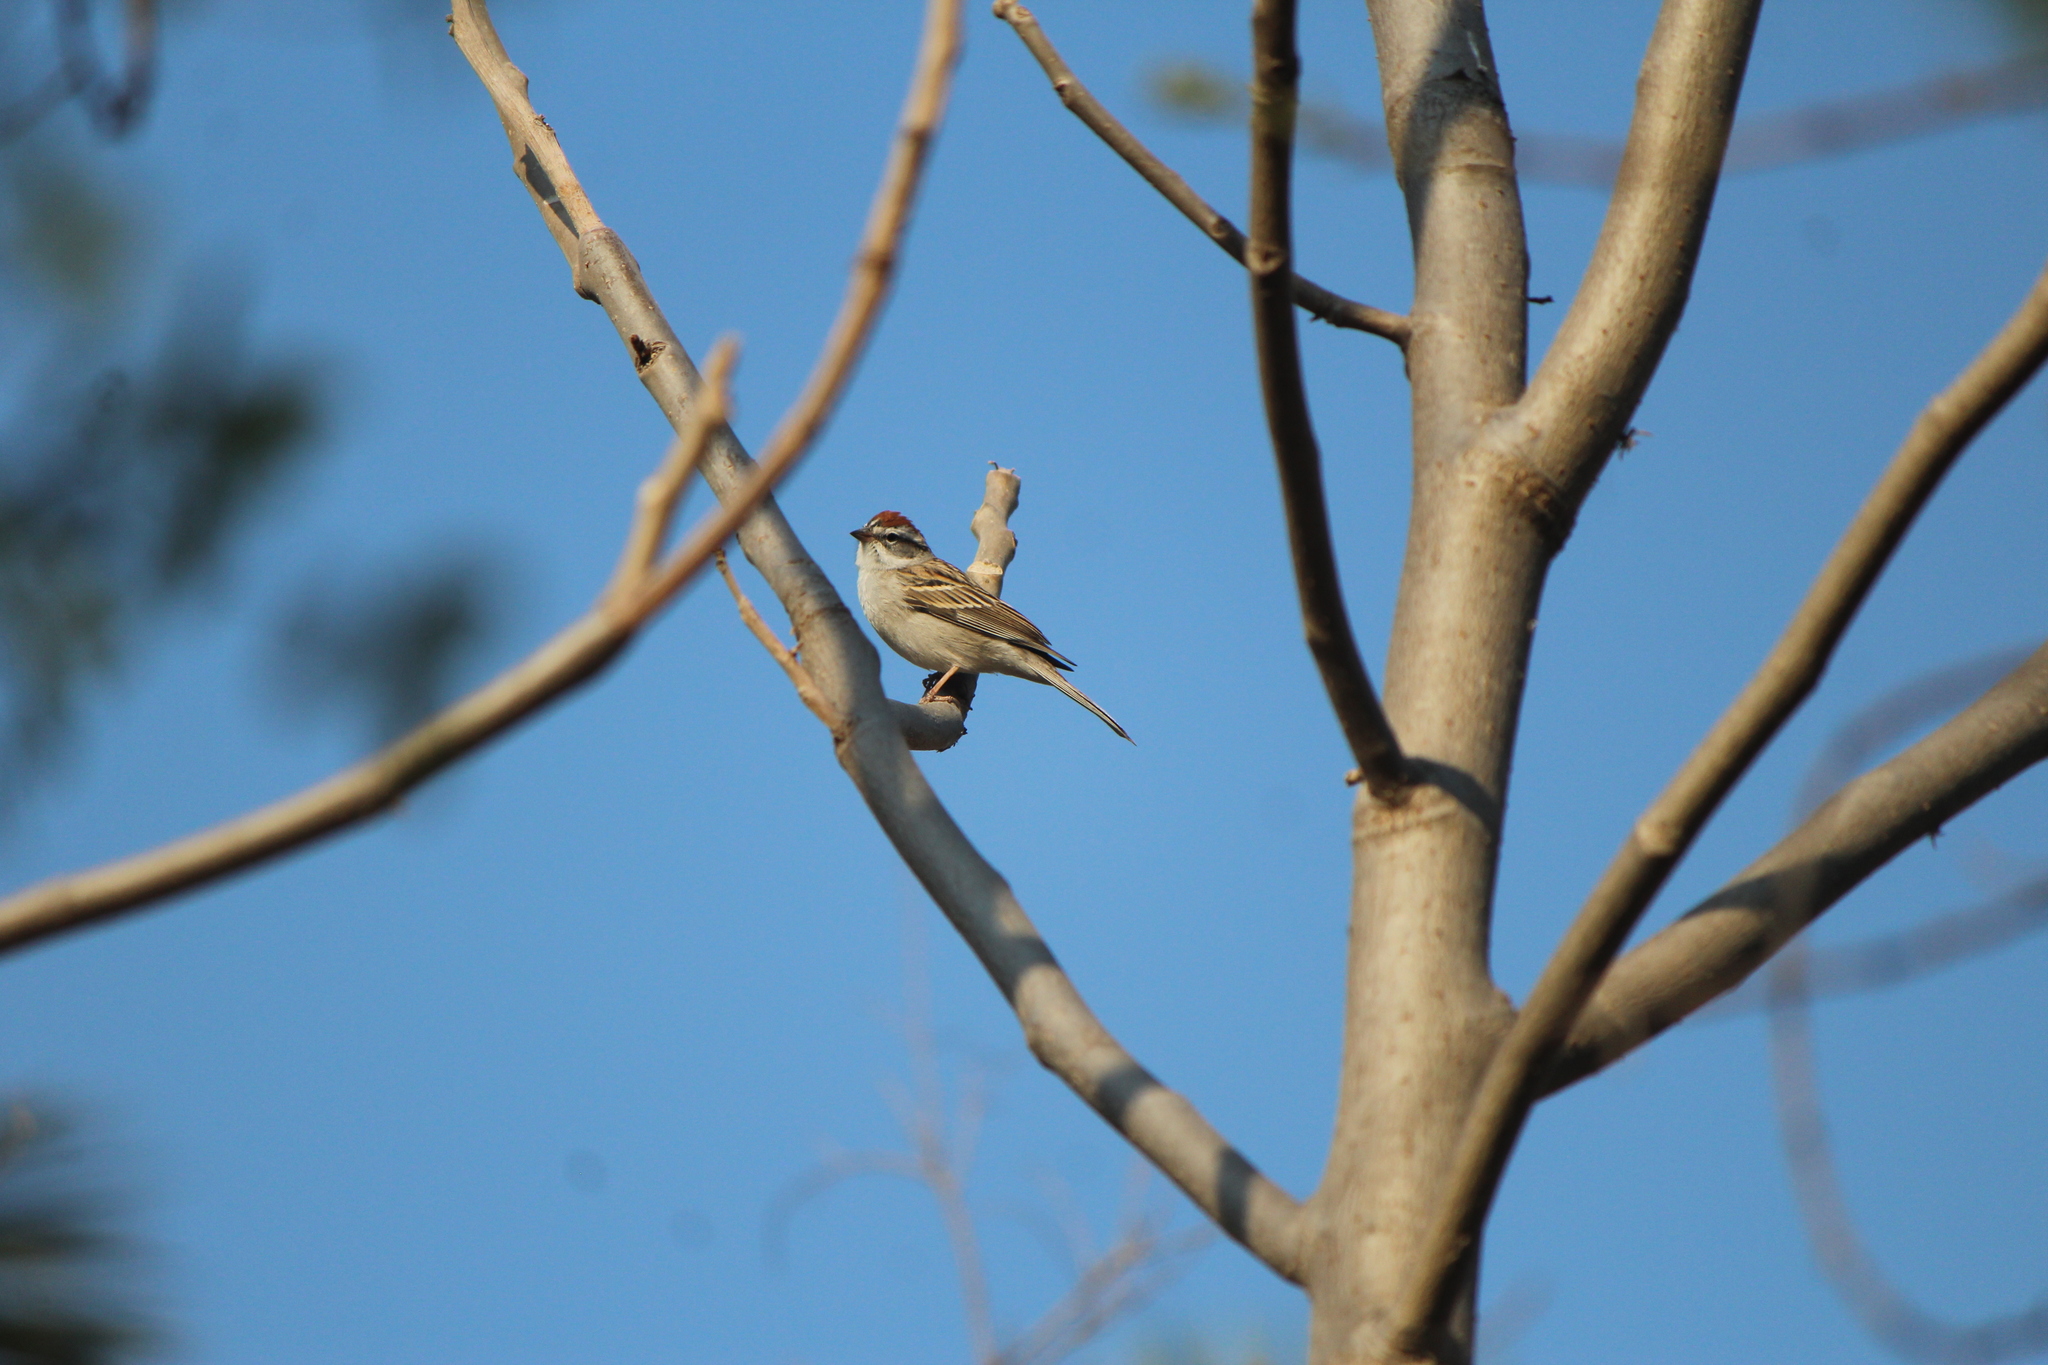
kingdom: Animalia
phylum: Chordata
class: Aves
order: Passeriformes
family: Passerellidae
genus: Spizella
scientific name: Spizella passerina
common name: Chipping sparrow
